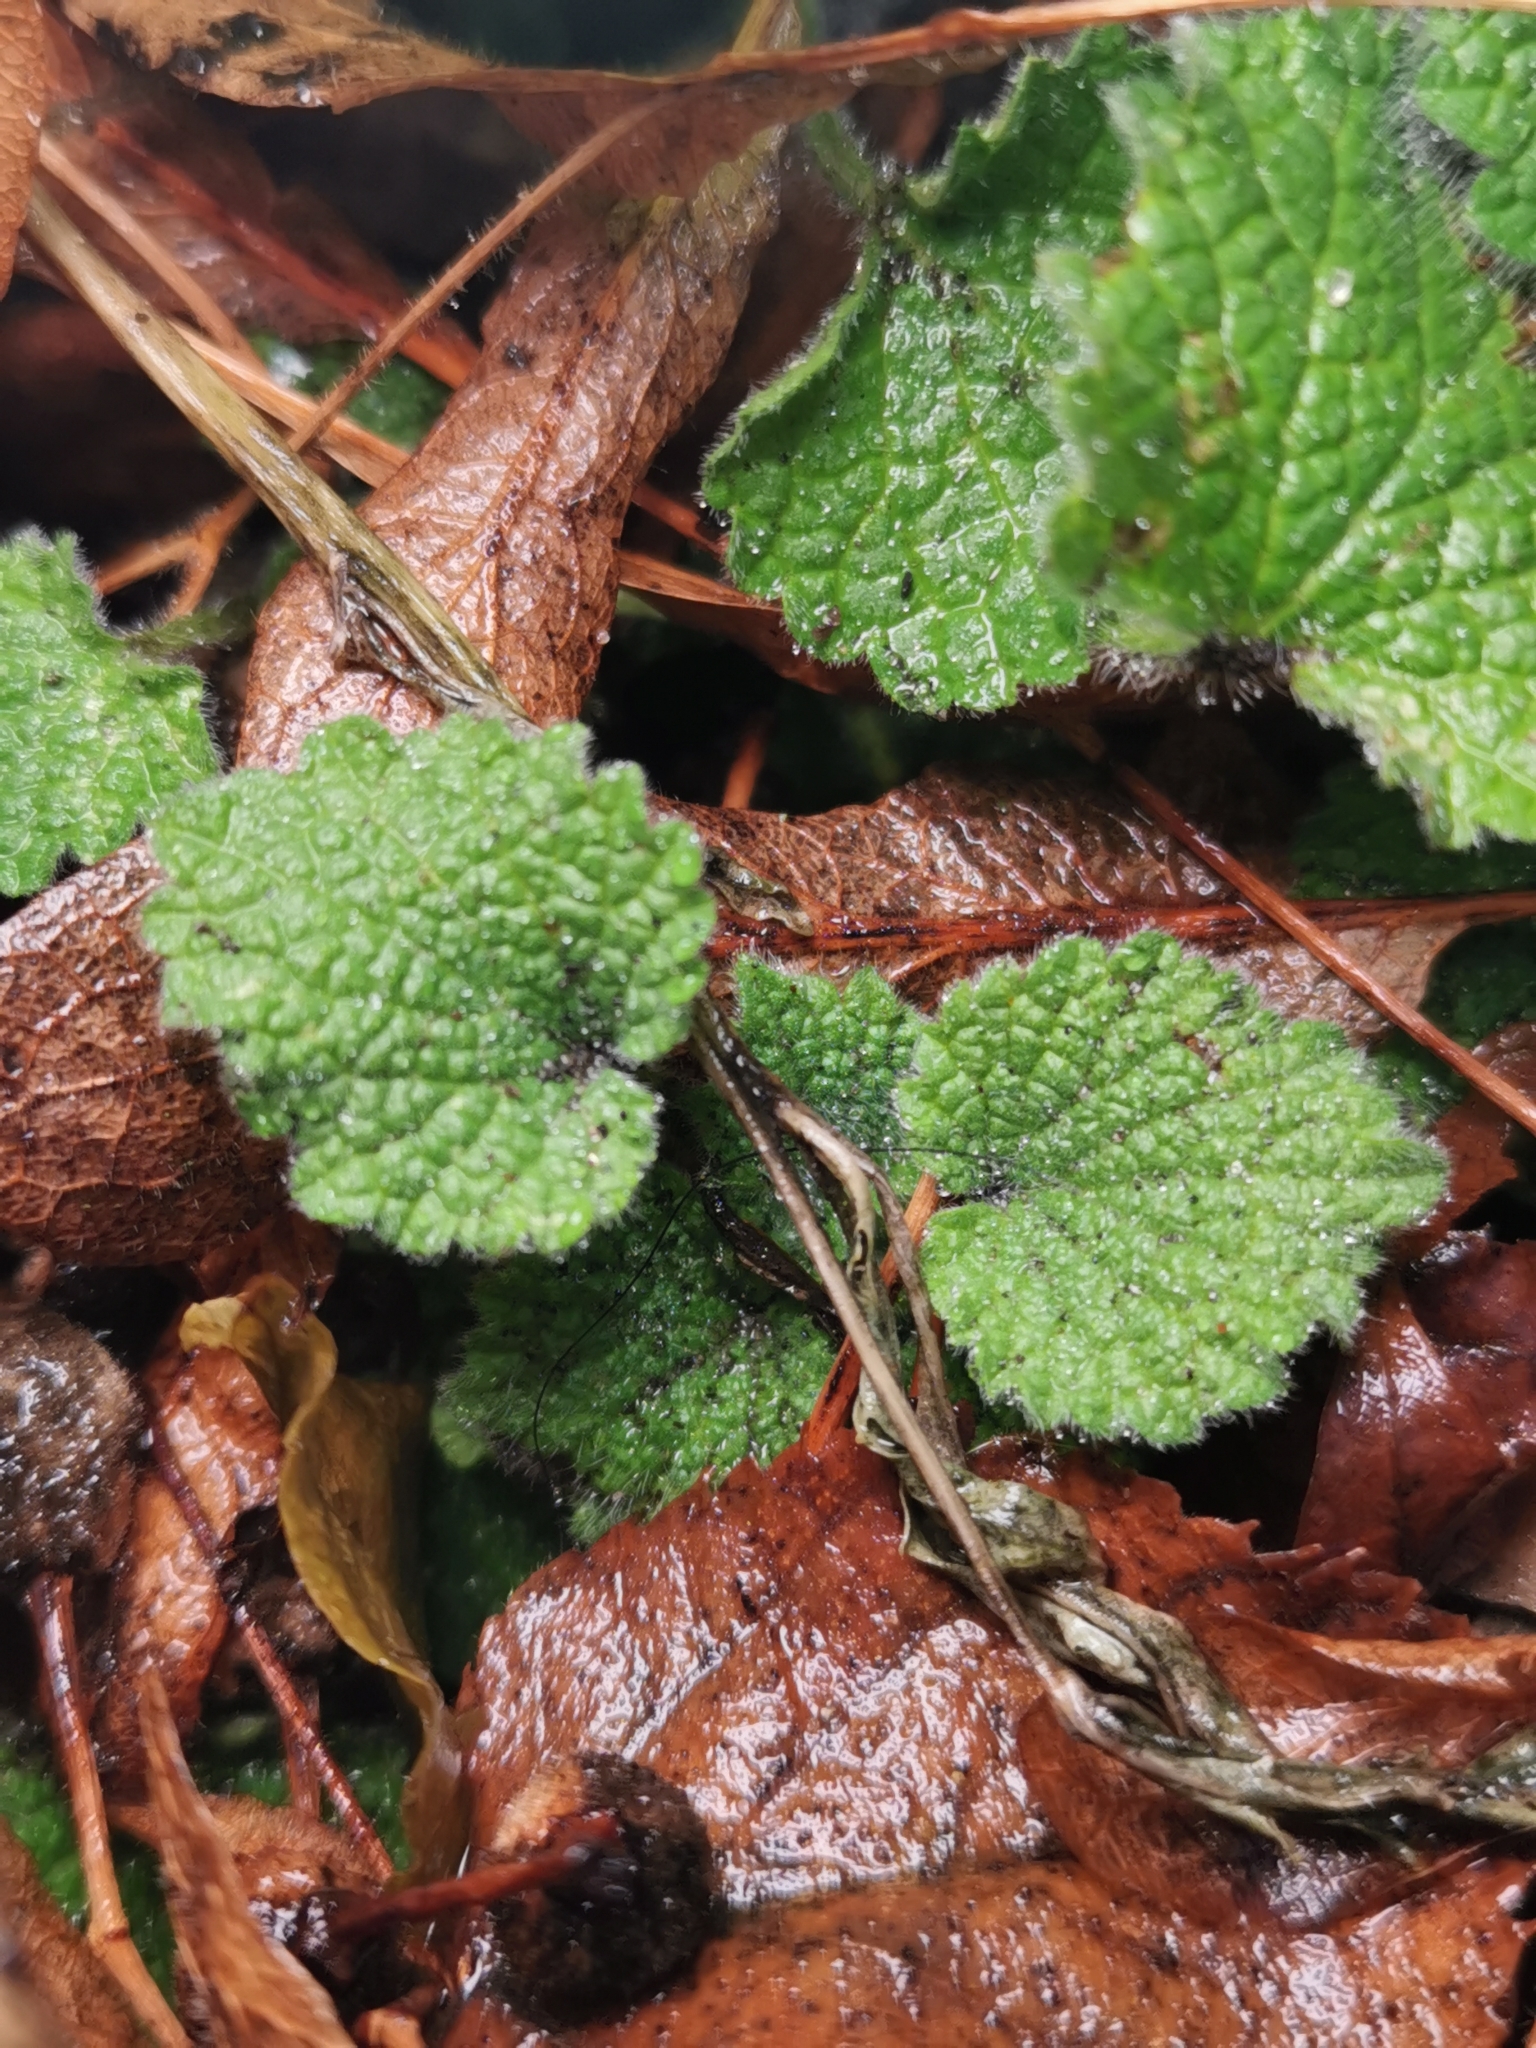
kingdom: Plantae
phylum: Tracheophyta
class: Magnoliopsida
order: Lamiales
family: Lamiaceae
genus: Ballota
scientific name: Ballota nigra
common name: Black horehound
